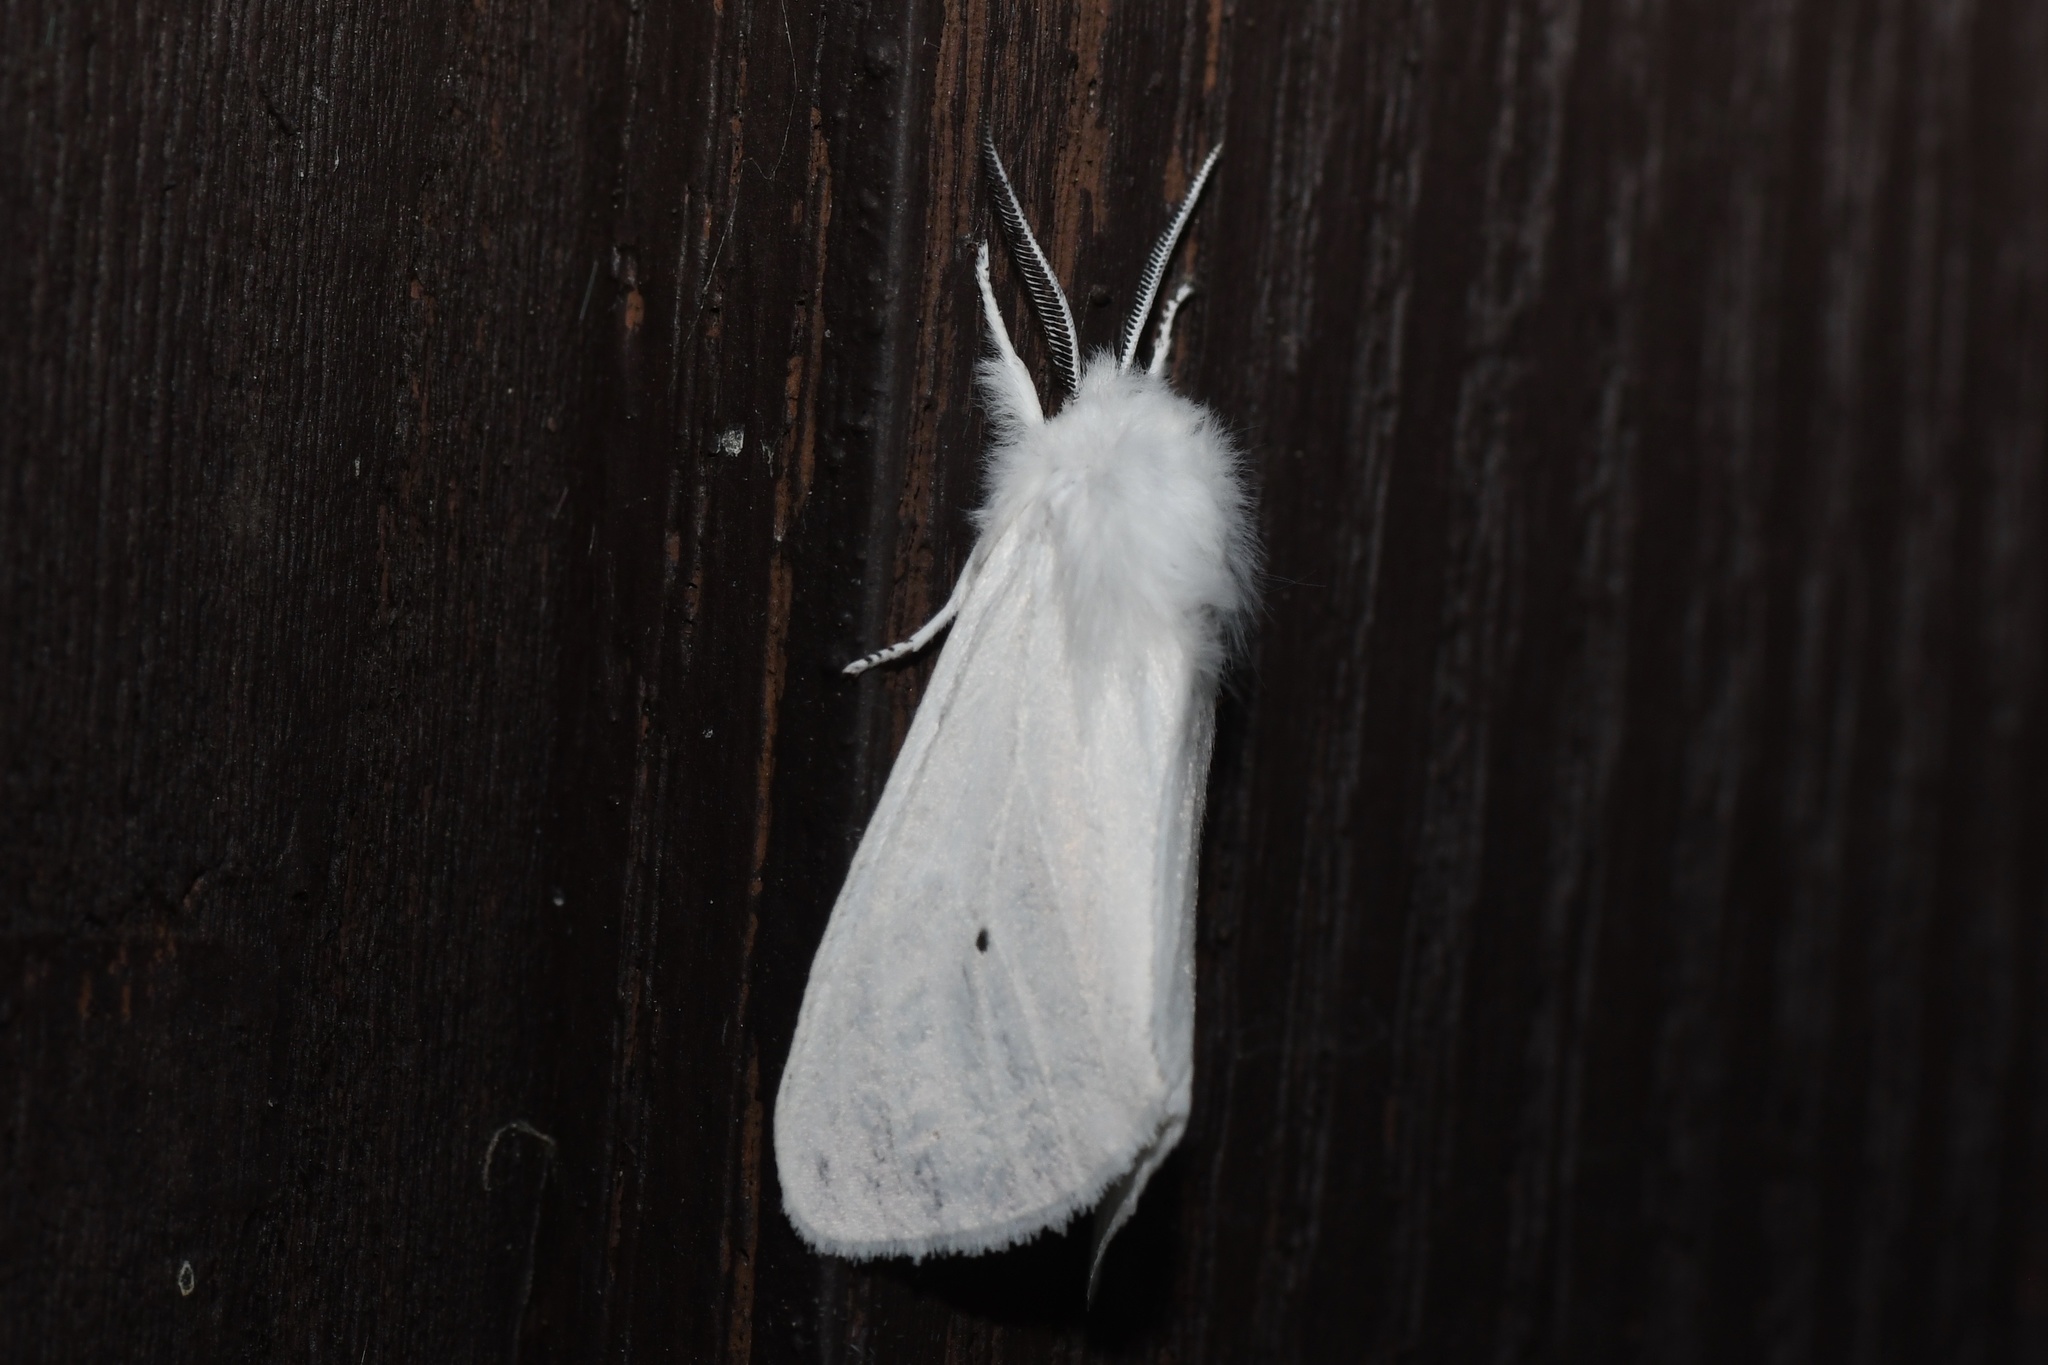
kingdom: Animalia
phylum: Arthropoda
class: Insecta
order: Lepidoptera
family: Erebidae
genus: Spilosoma
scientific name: Spilosoma virginica
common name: Virginia tiger moth
